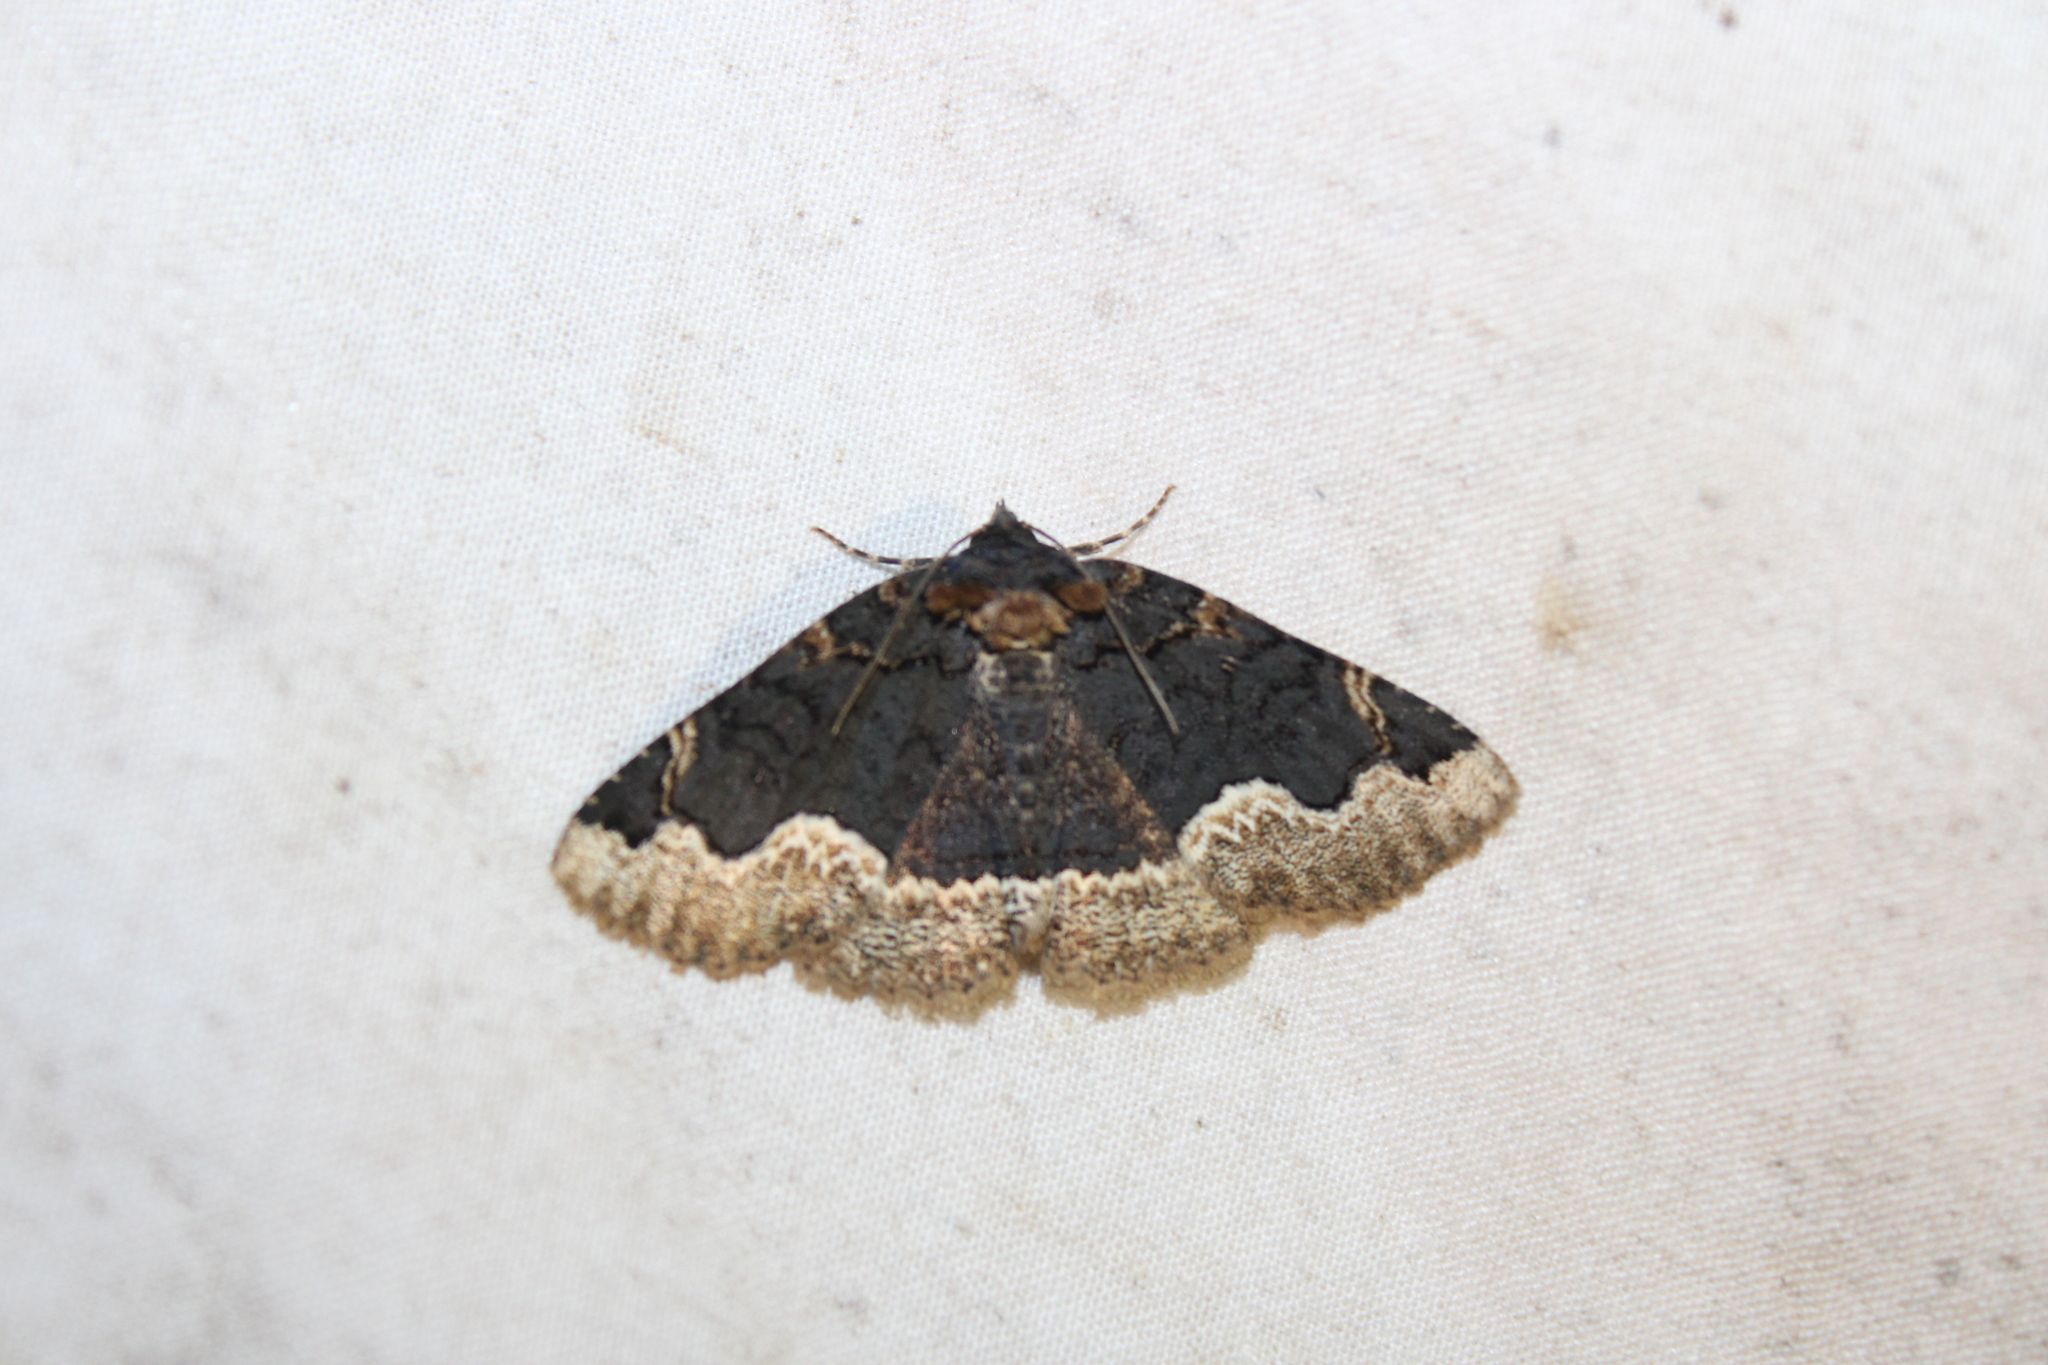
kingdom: Animalia
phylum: Arthropoda
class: Insecta
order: Lepidoptera
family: Erebidae
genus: Zale
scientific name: Zale horrida
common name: Horrid zale moth
